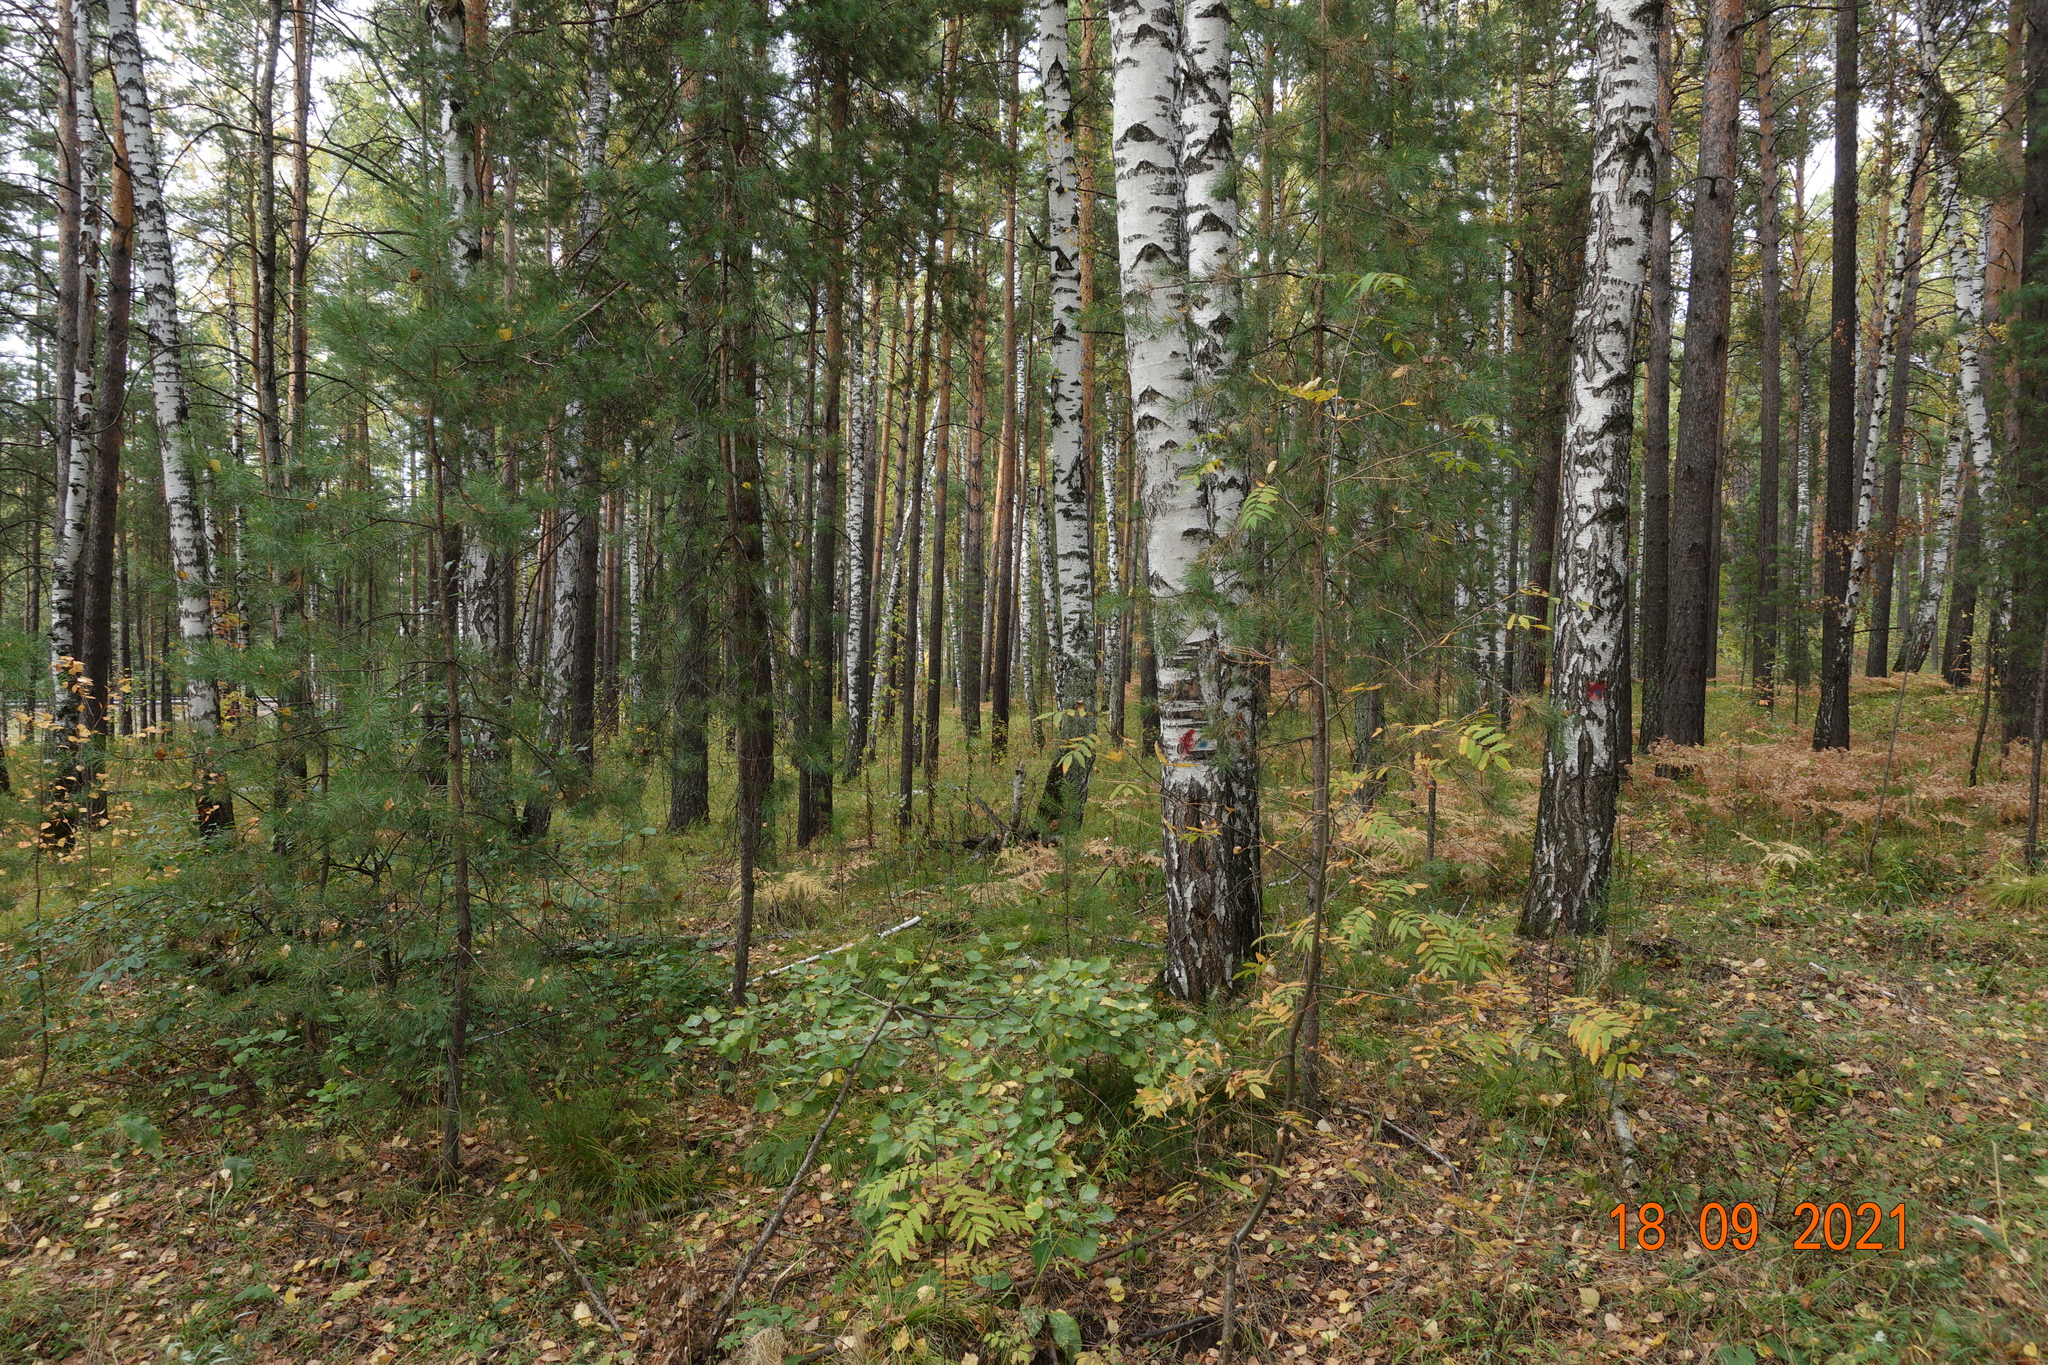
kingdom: Plantae
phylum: Tracheophyta
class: Magnoliopsida
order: Fagales
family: Betulaceae
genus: Betula
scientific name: Betula pendula
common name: Silver birch
